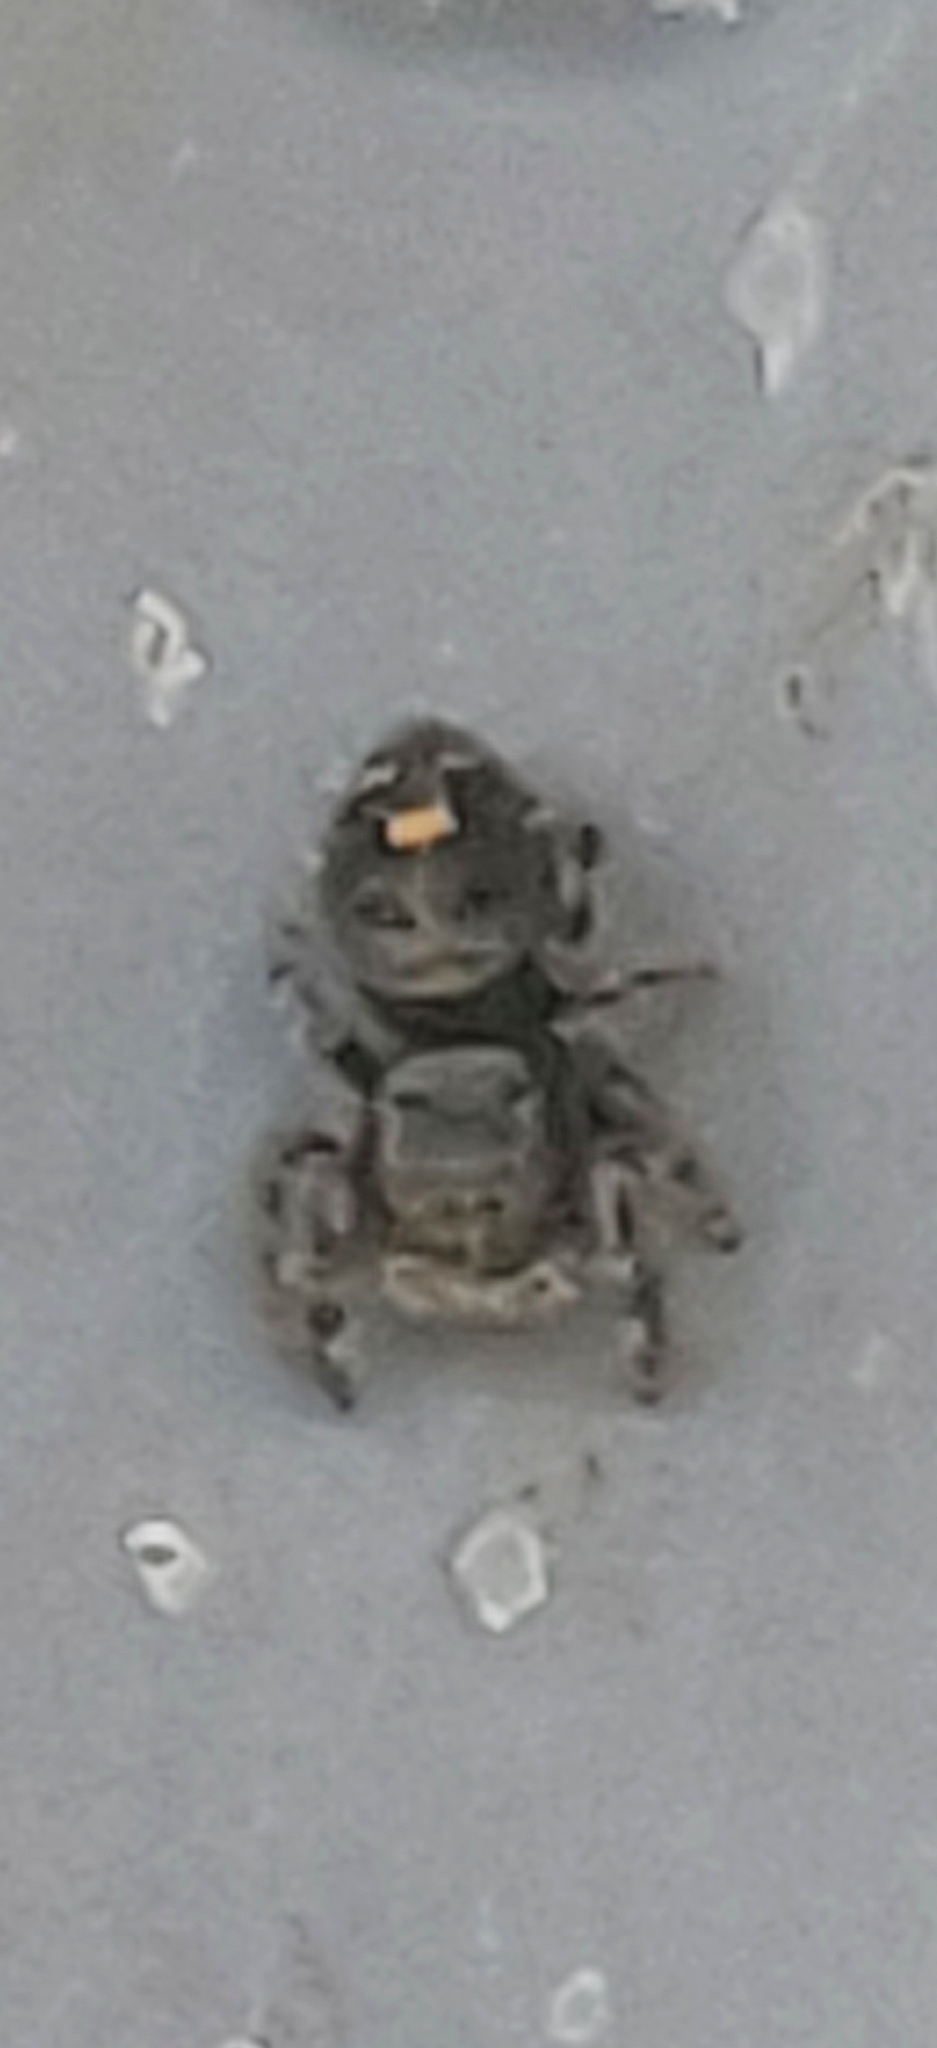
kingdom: Animalia
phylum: Arthropoda
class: Arachnida
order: Araneae
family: Salticidae
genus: Phidippus
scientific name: Phidippus audax
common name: Bold jumper
